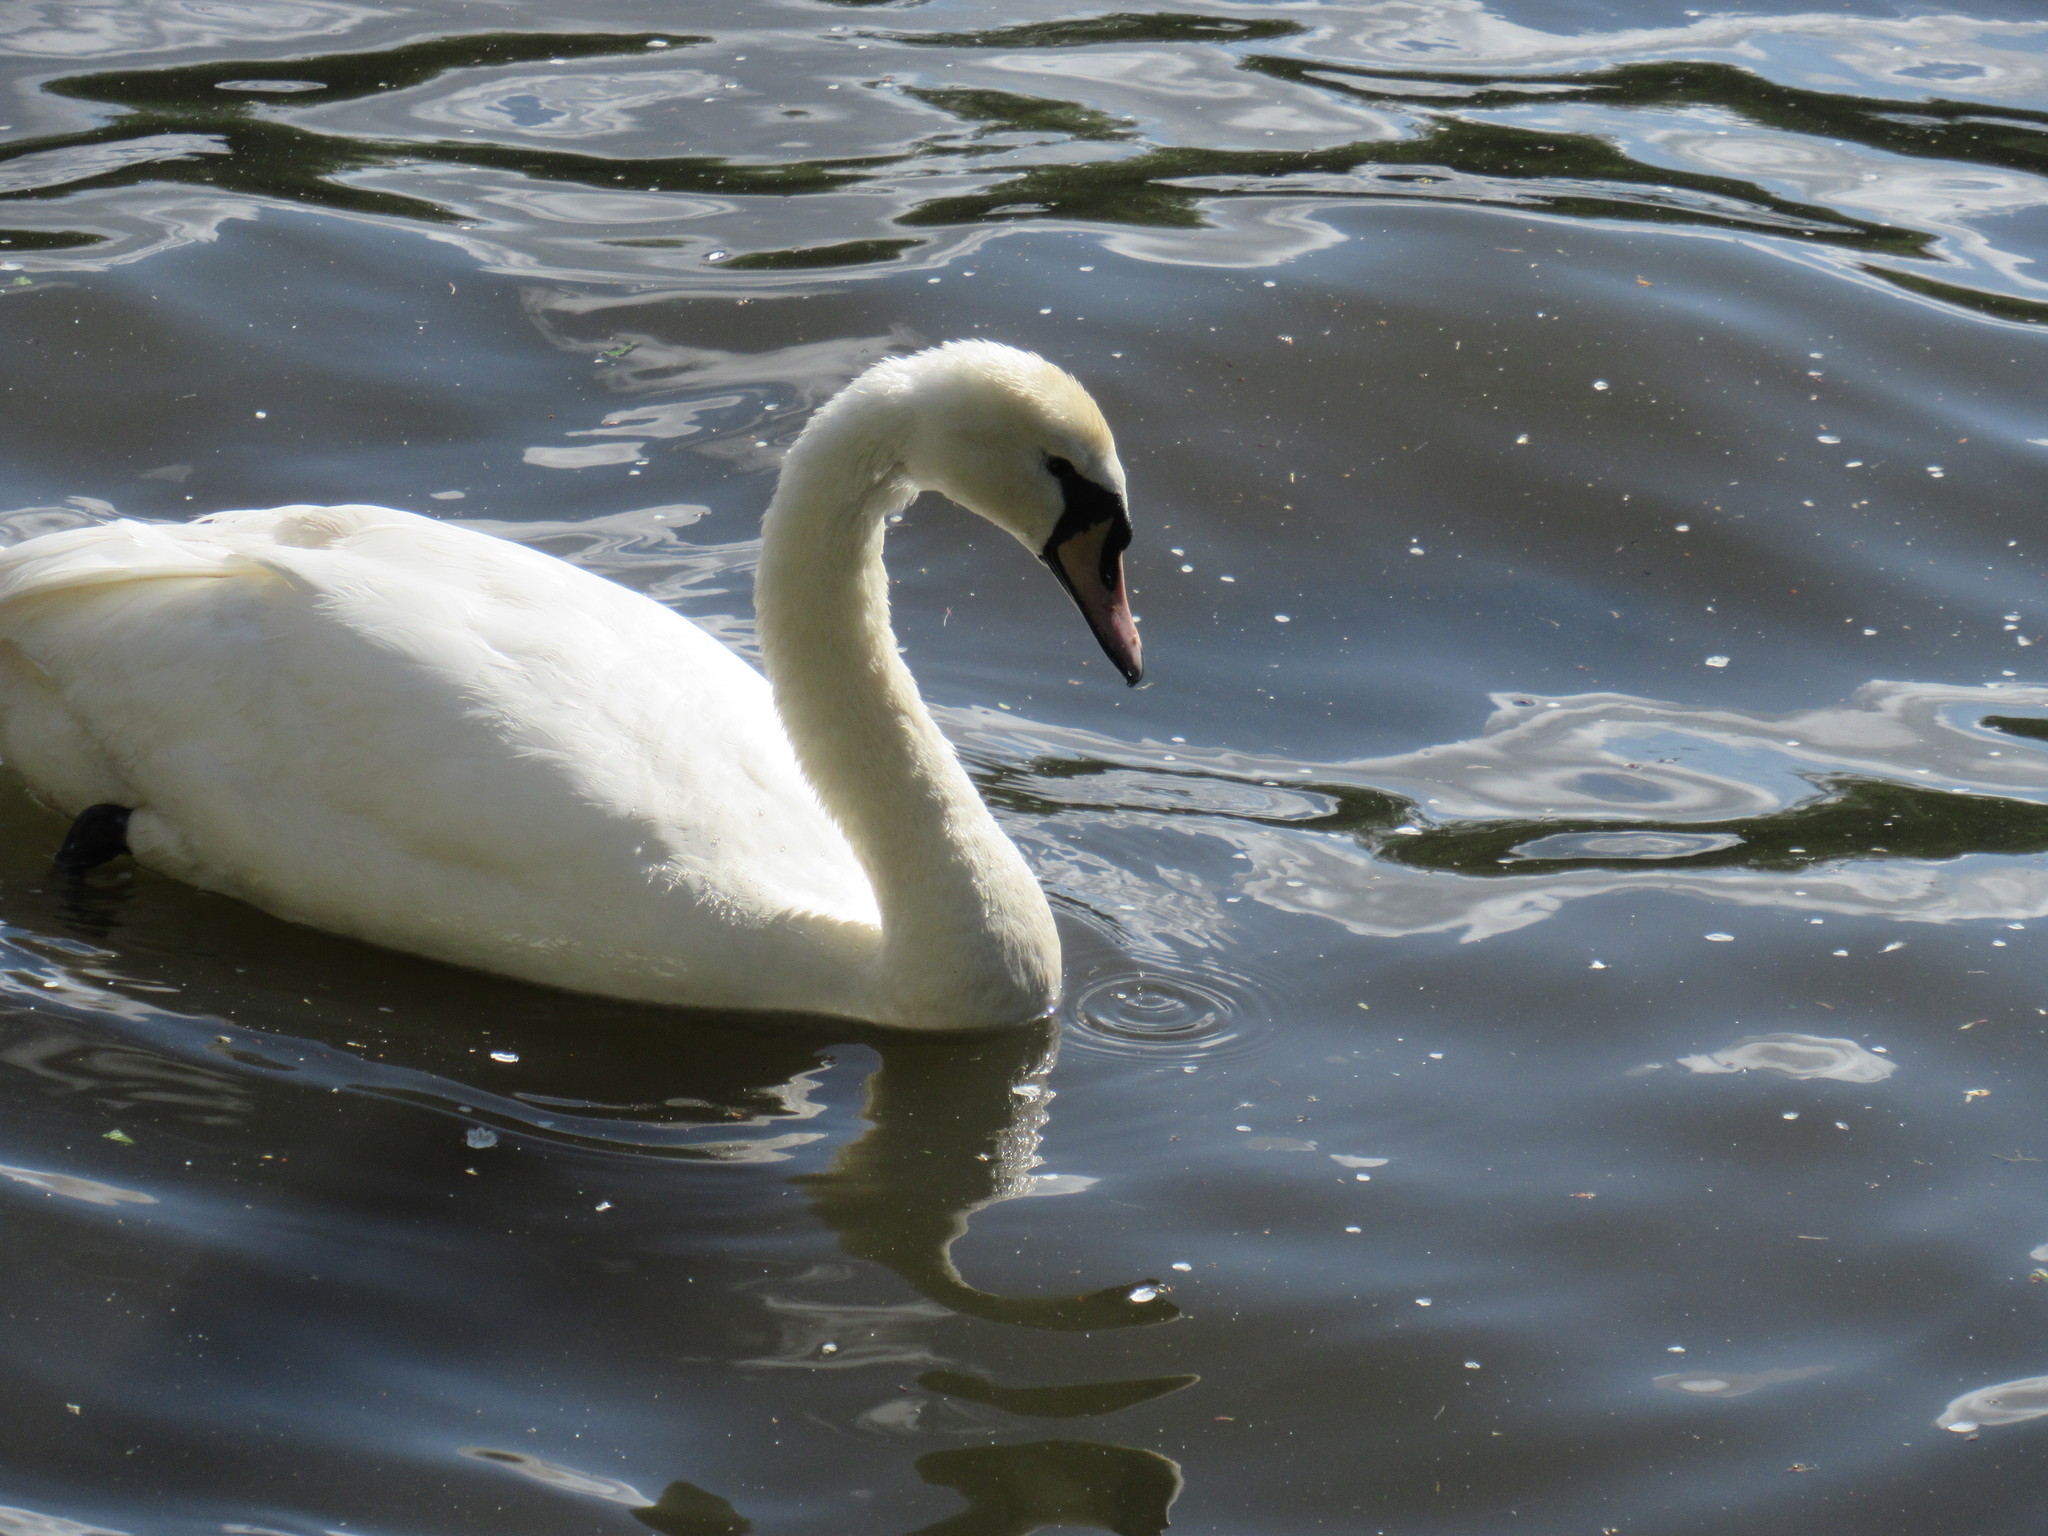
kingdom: Animalia
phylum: Chordata
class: Aves
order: Anseriformes
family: Anatidae
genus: Cygnus
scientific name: Cygnus olor
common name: Mute swan
